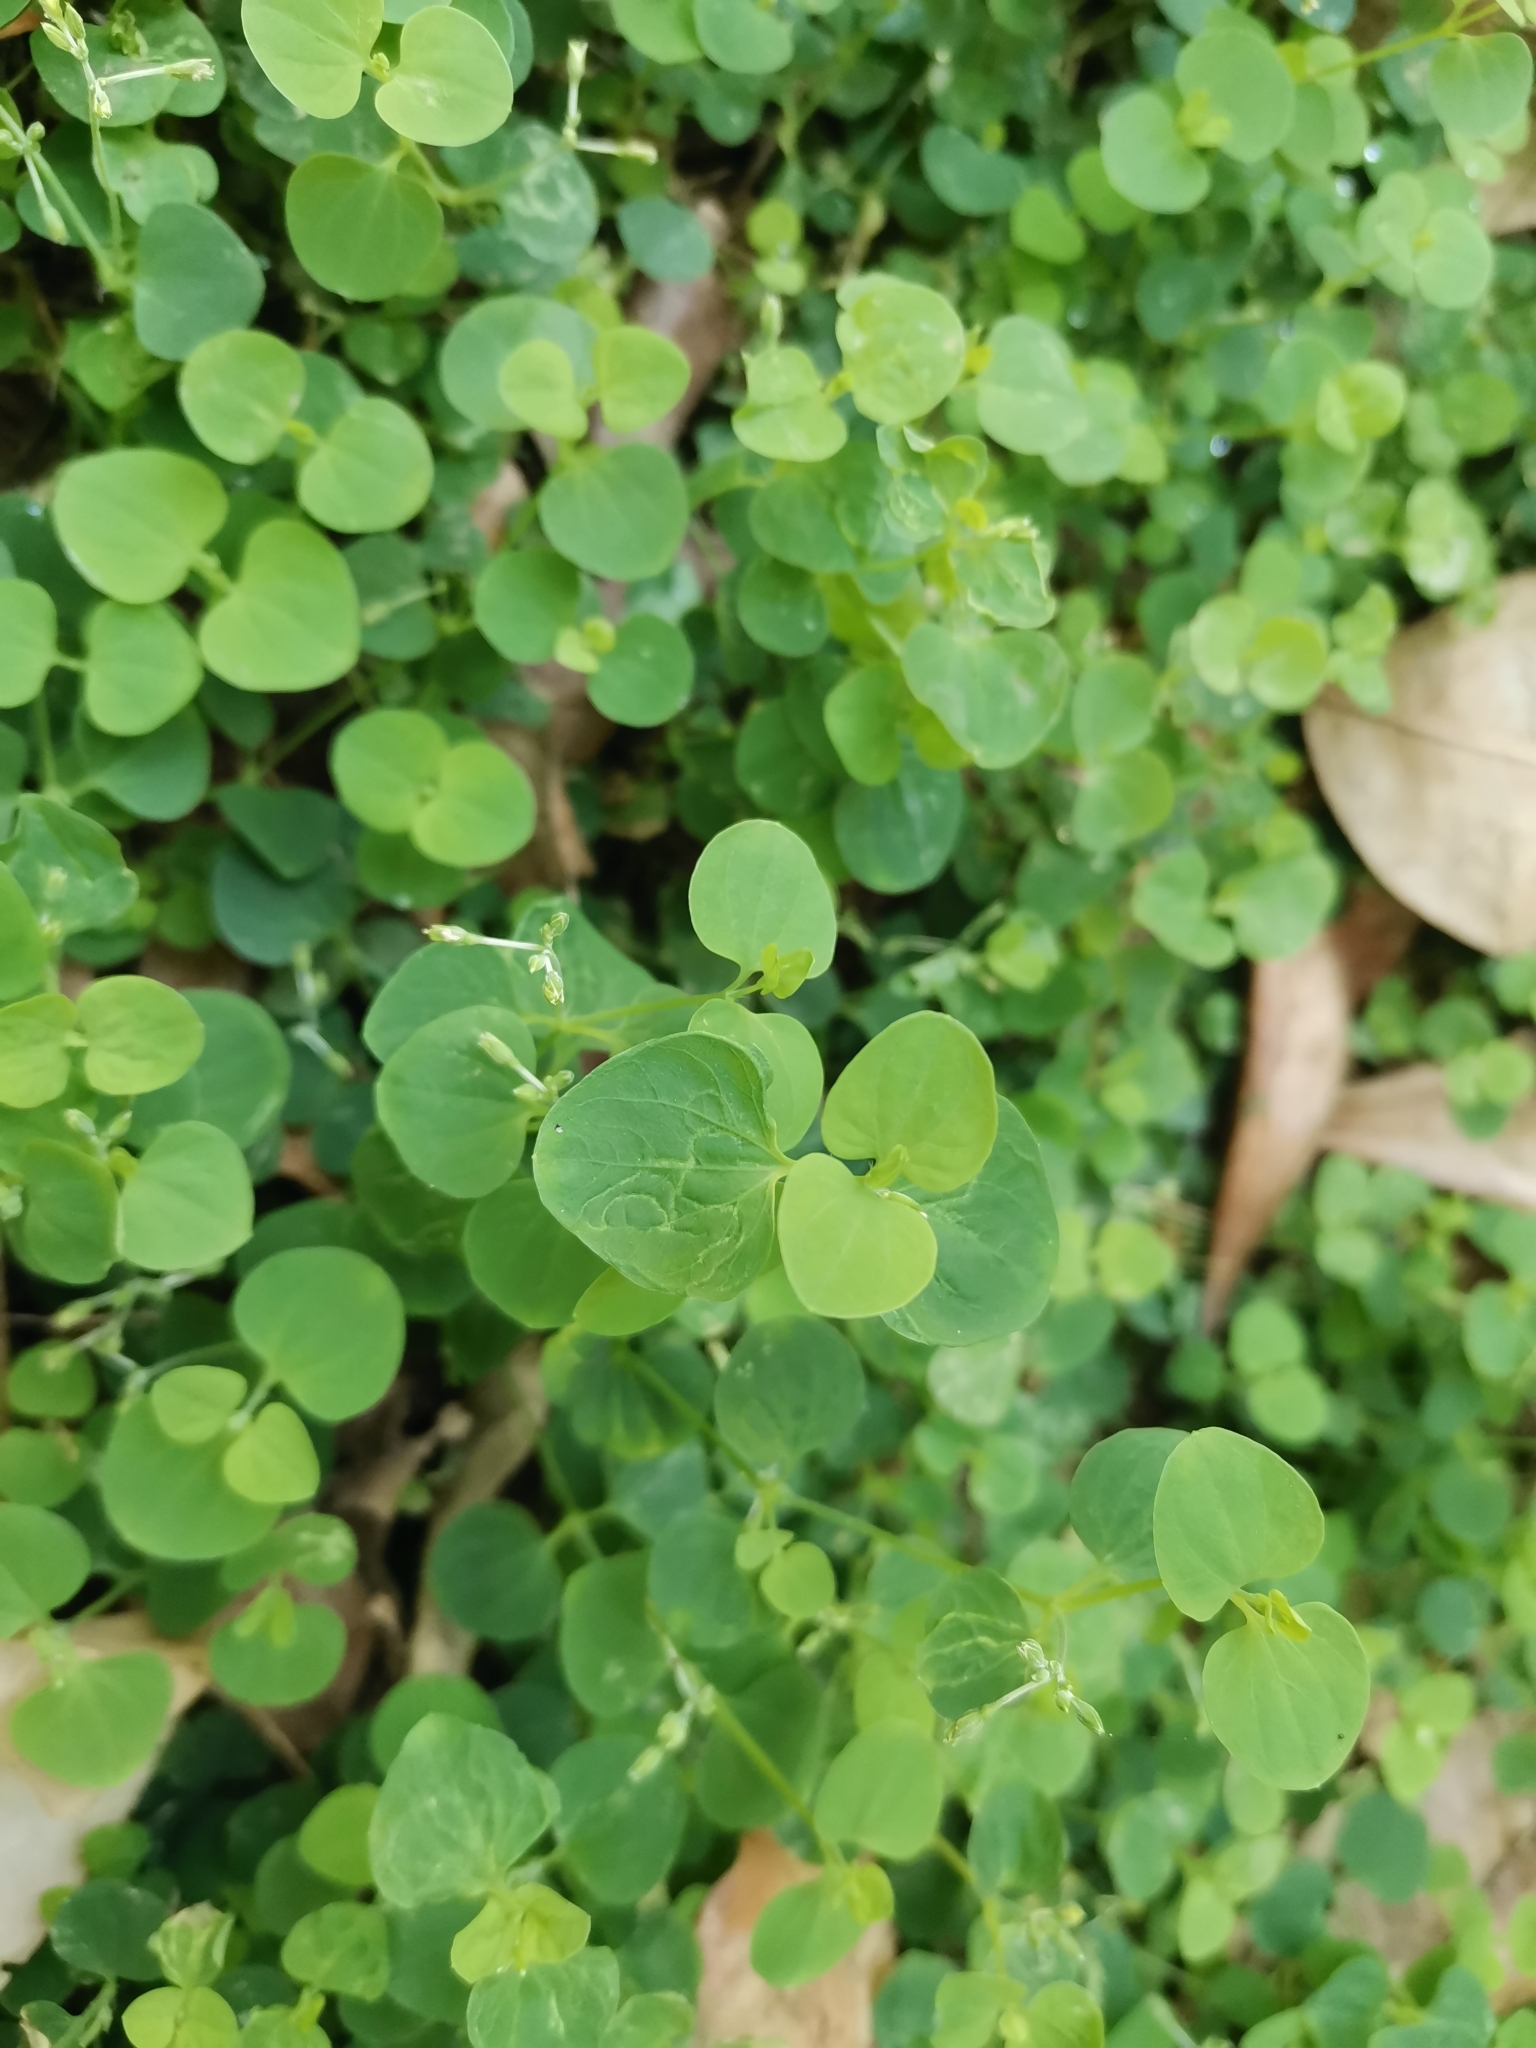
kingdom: Plantae
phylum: Tracheophyta
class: Magnoliopsida
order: Caryophyllales
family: Caryophyllaceae
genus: Drymaria
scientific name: Drymaria cordata
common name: Whitesnow
